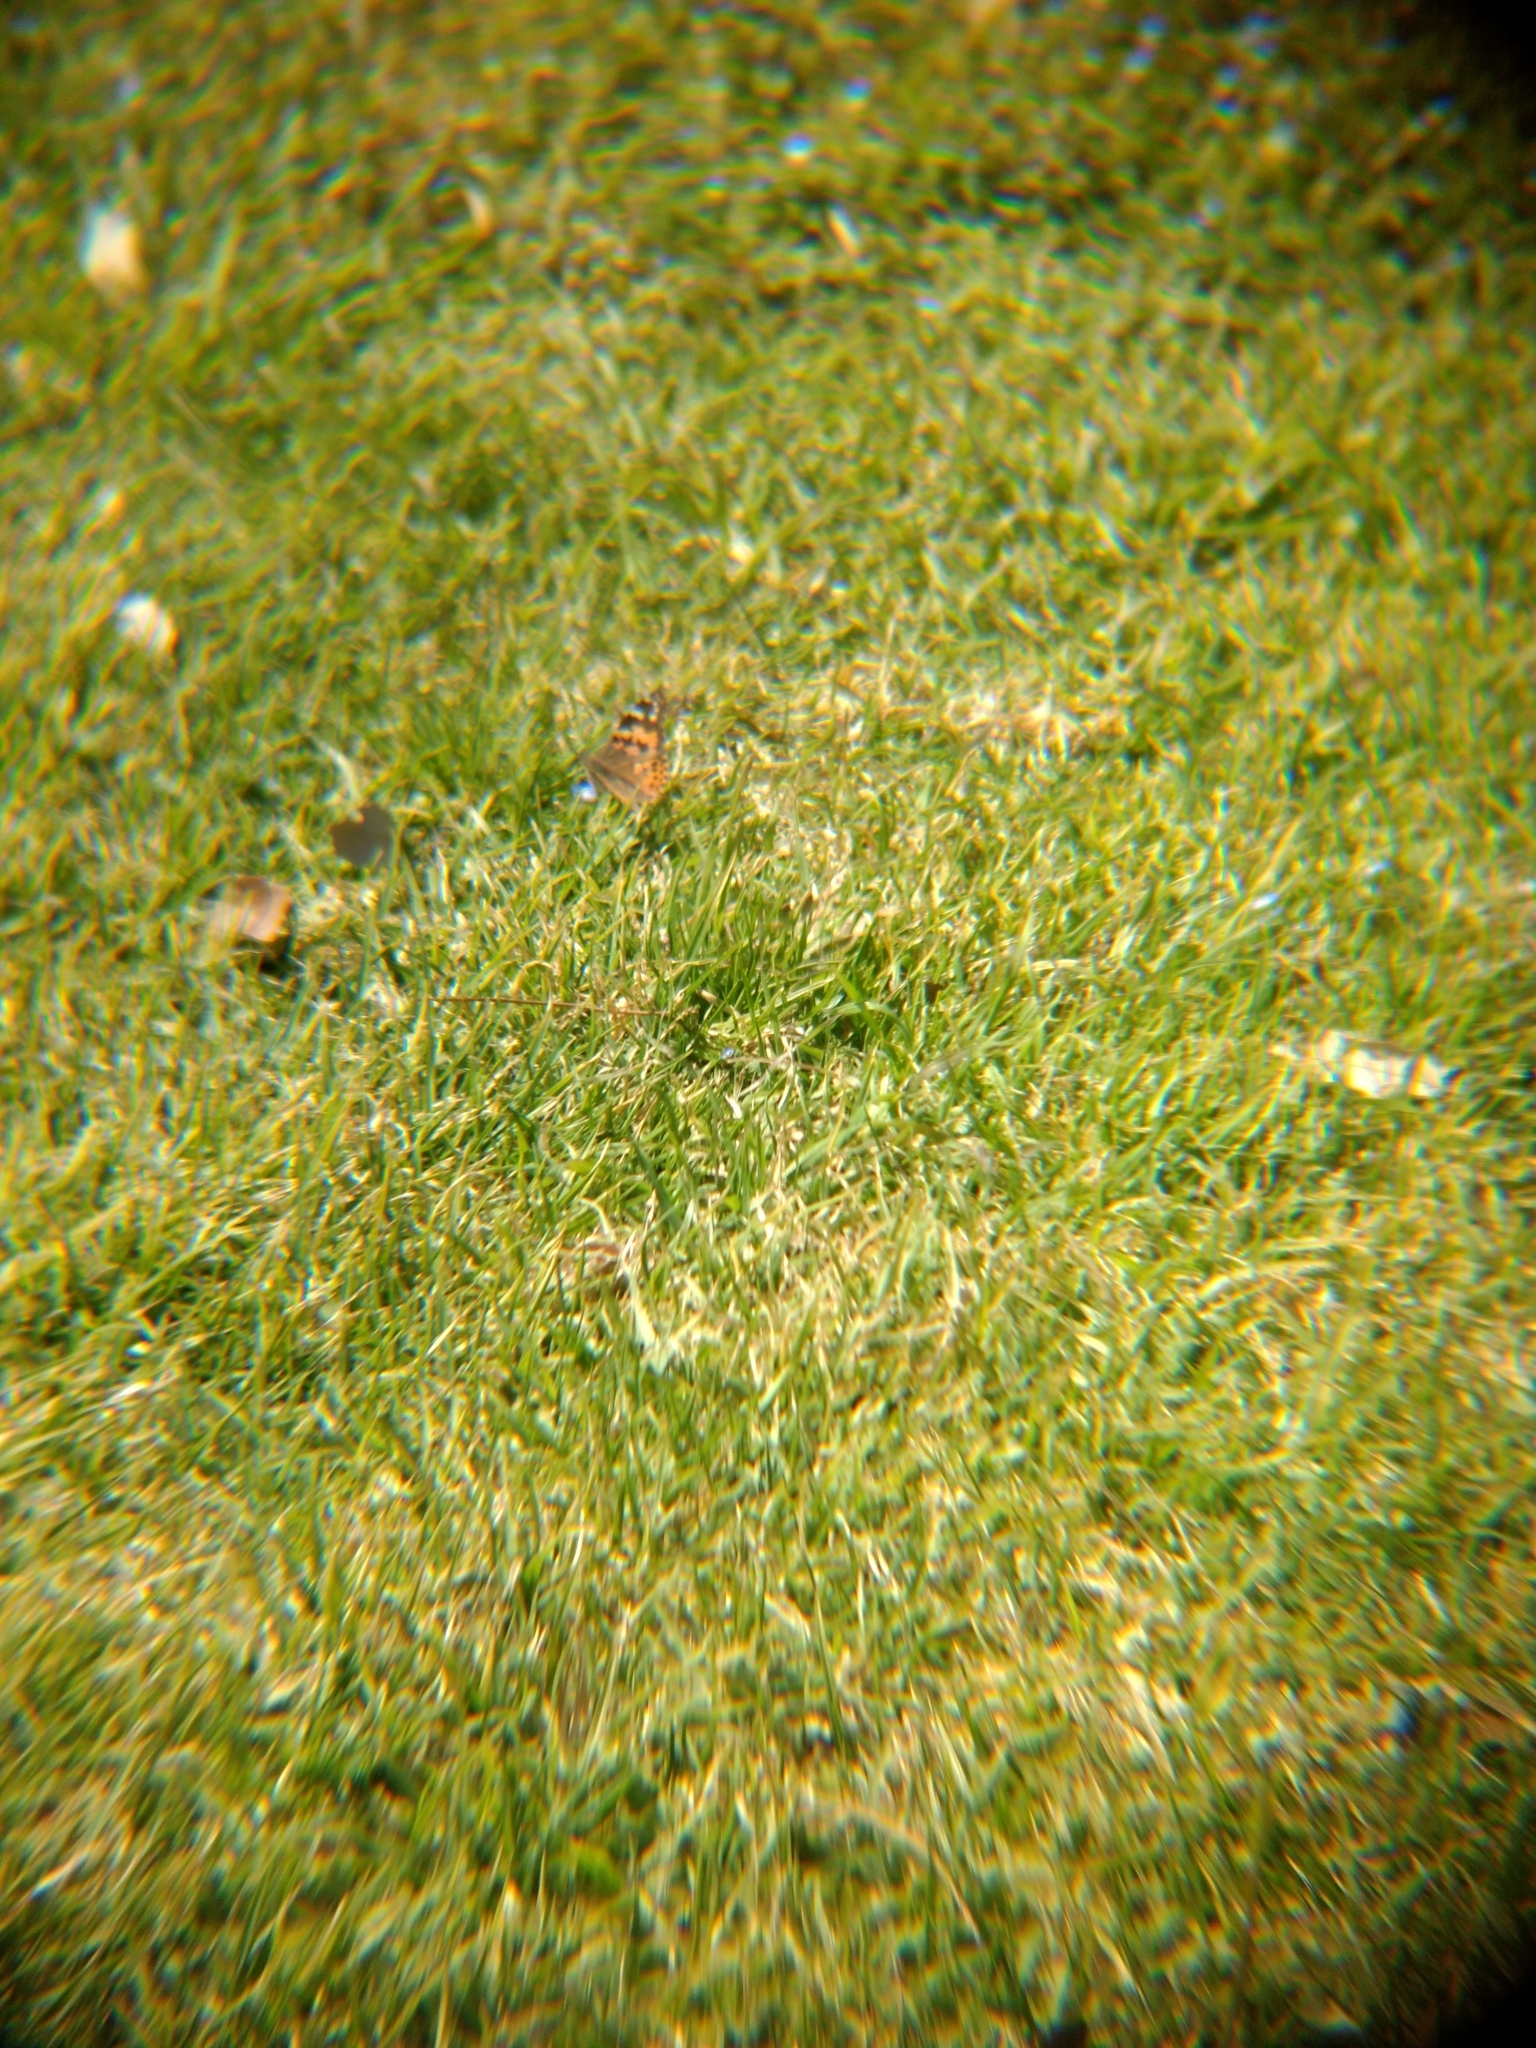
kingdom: Animalia
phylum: Arthropoda
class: Insecta
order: Lepidoptera
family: Nymphalidae
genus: Vanessa
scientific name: Vanessa cardui
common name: Painted lady
